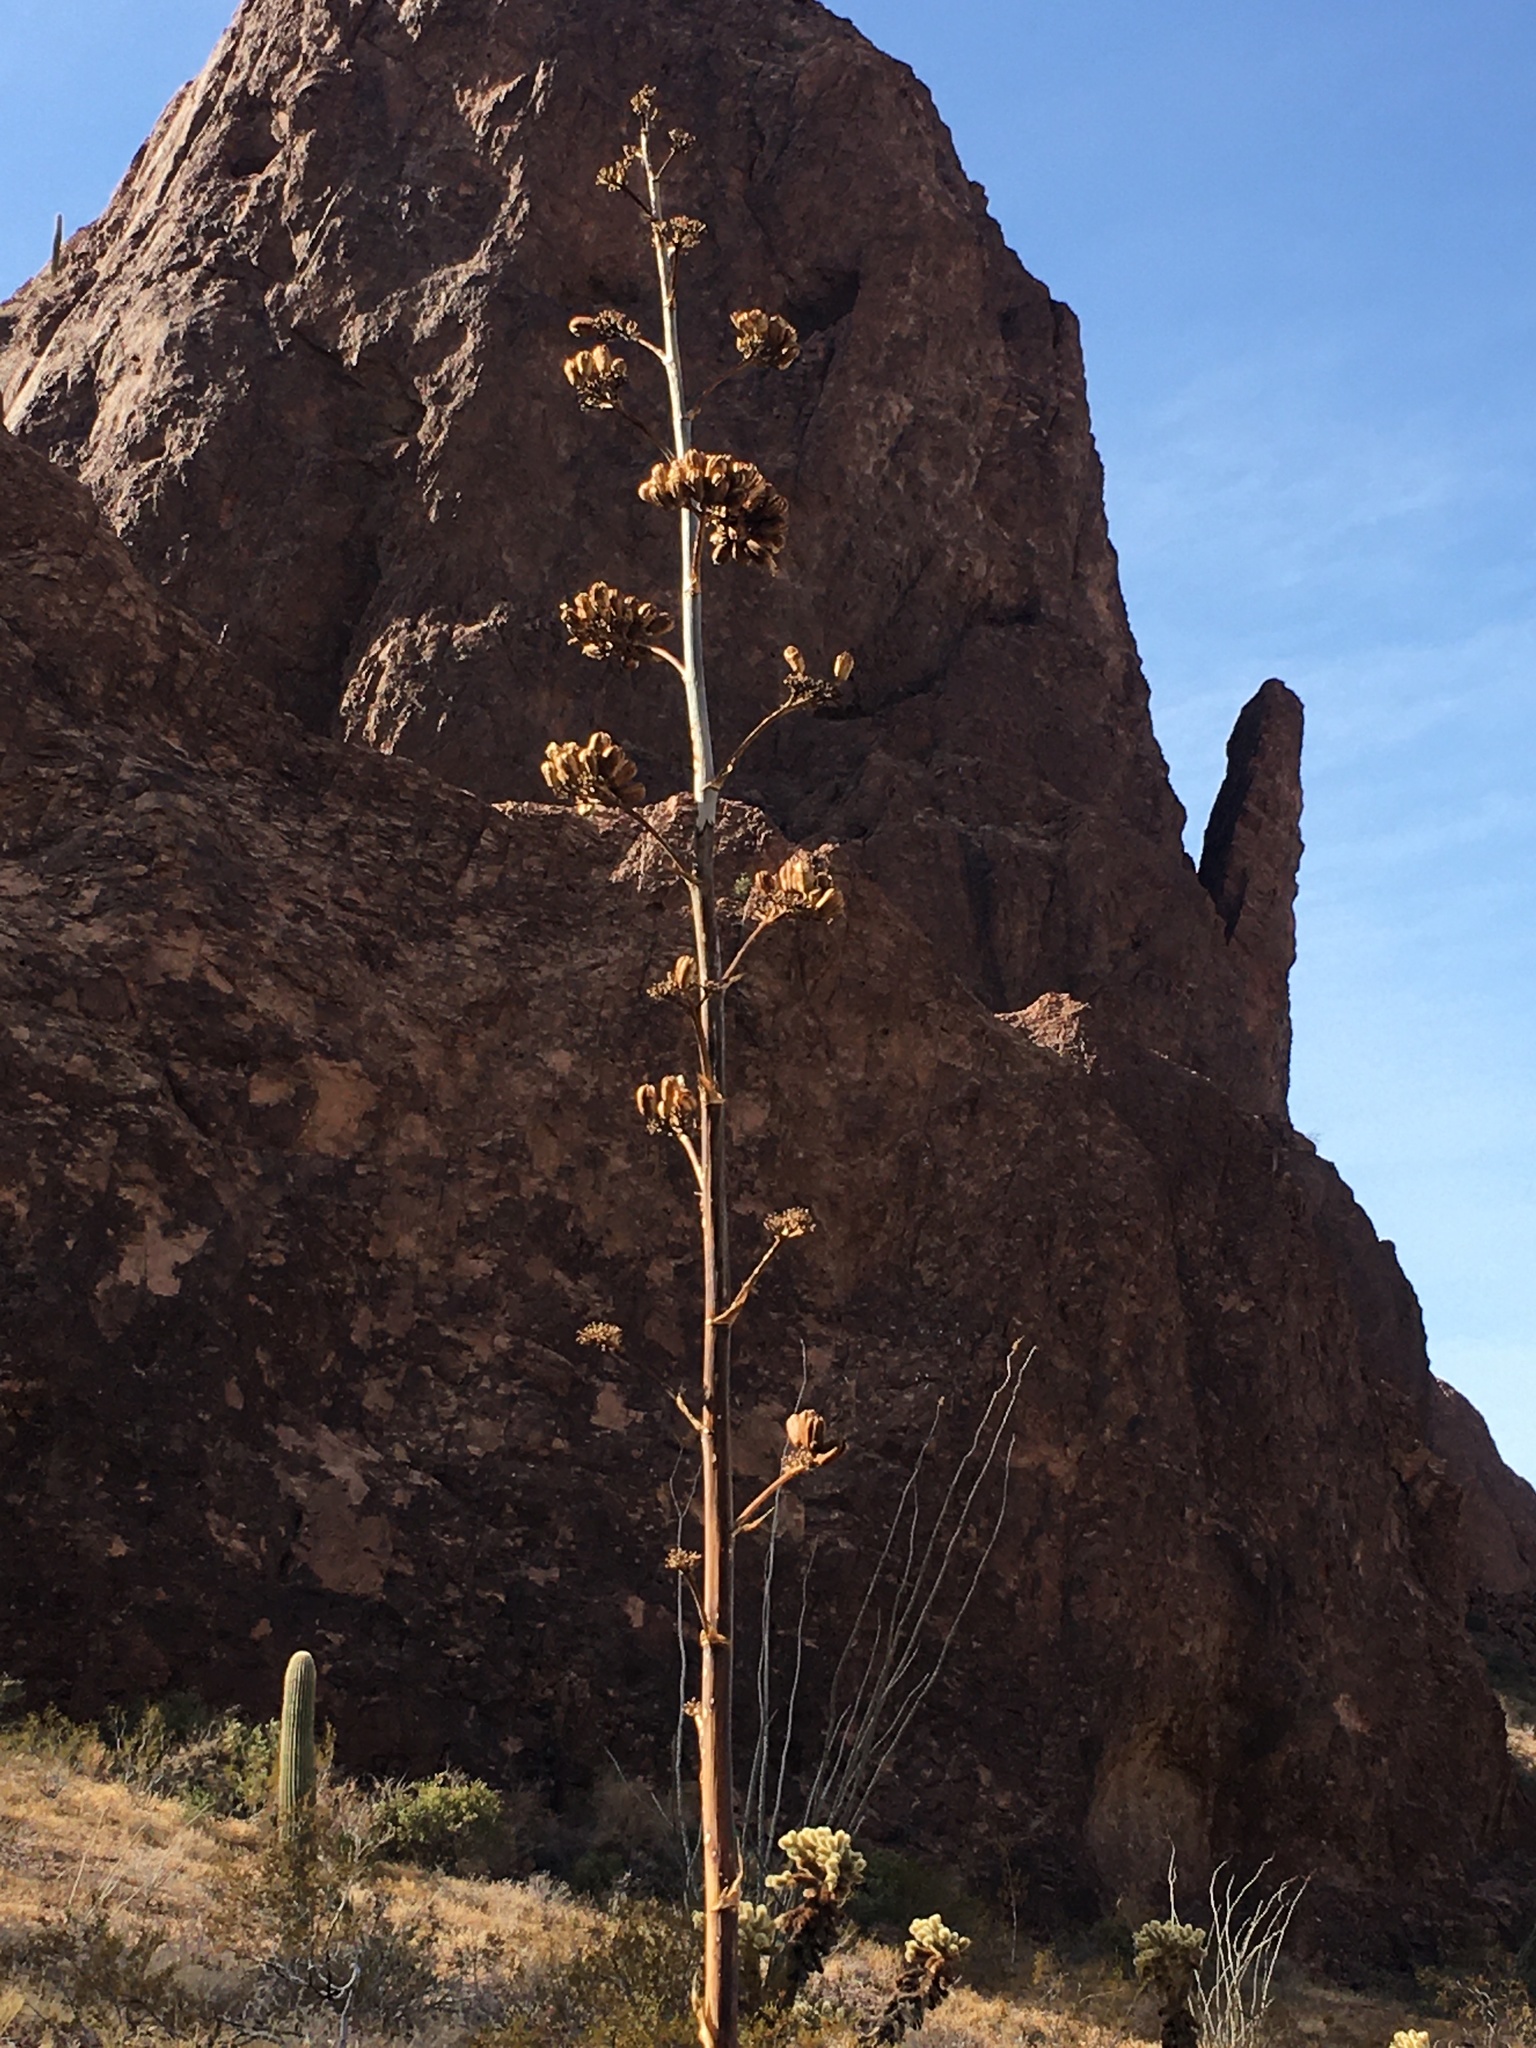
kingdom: Plantae
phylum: Tracheophyta
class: Liliopsida
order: Asparagales
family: Asparagaceae
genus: Agave
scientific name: Agave simplex
